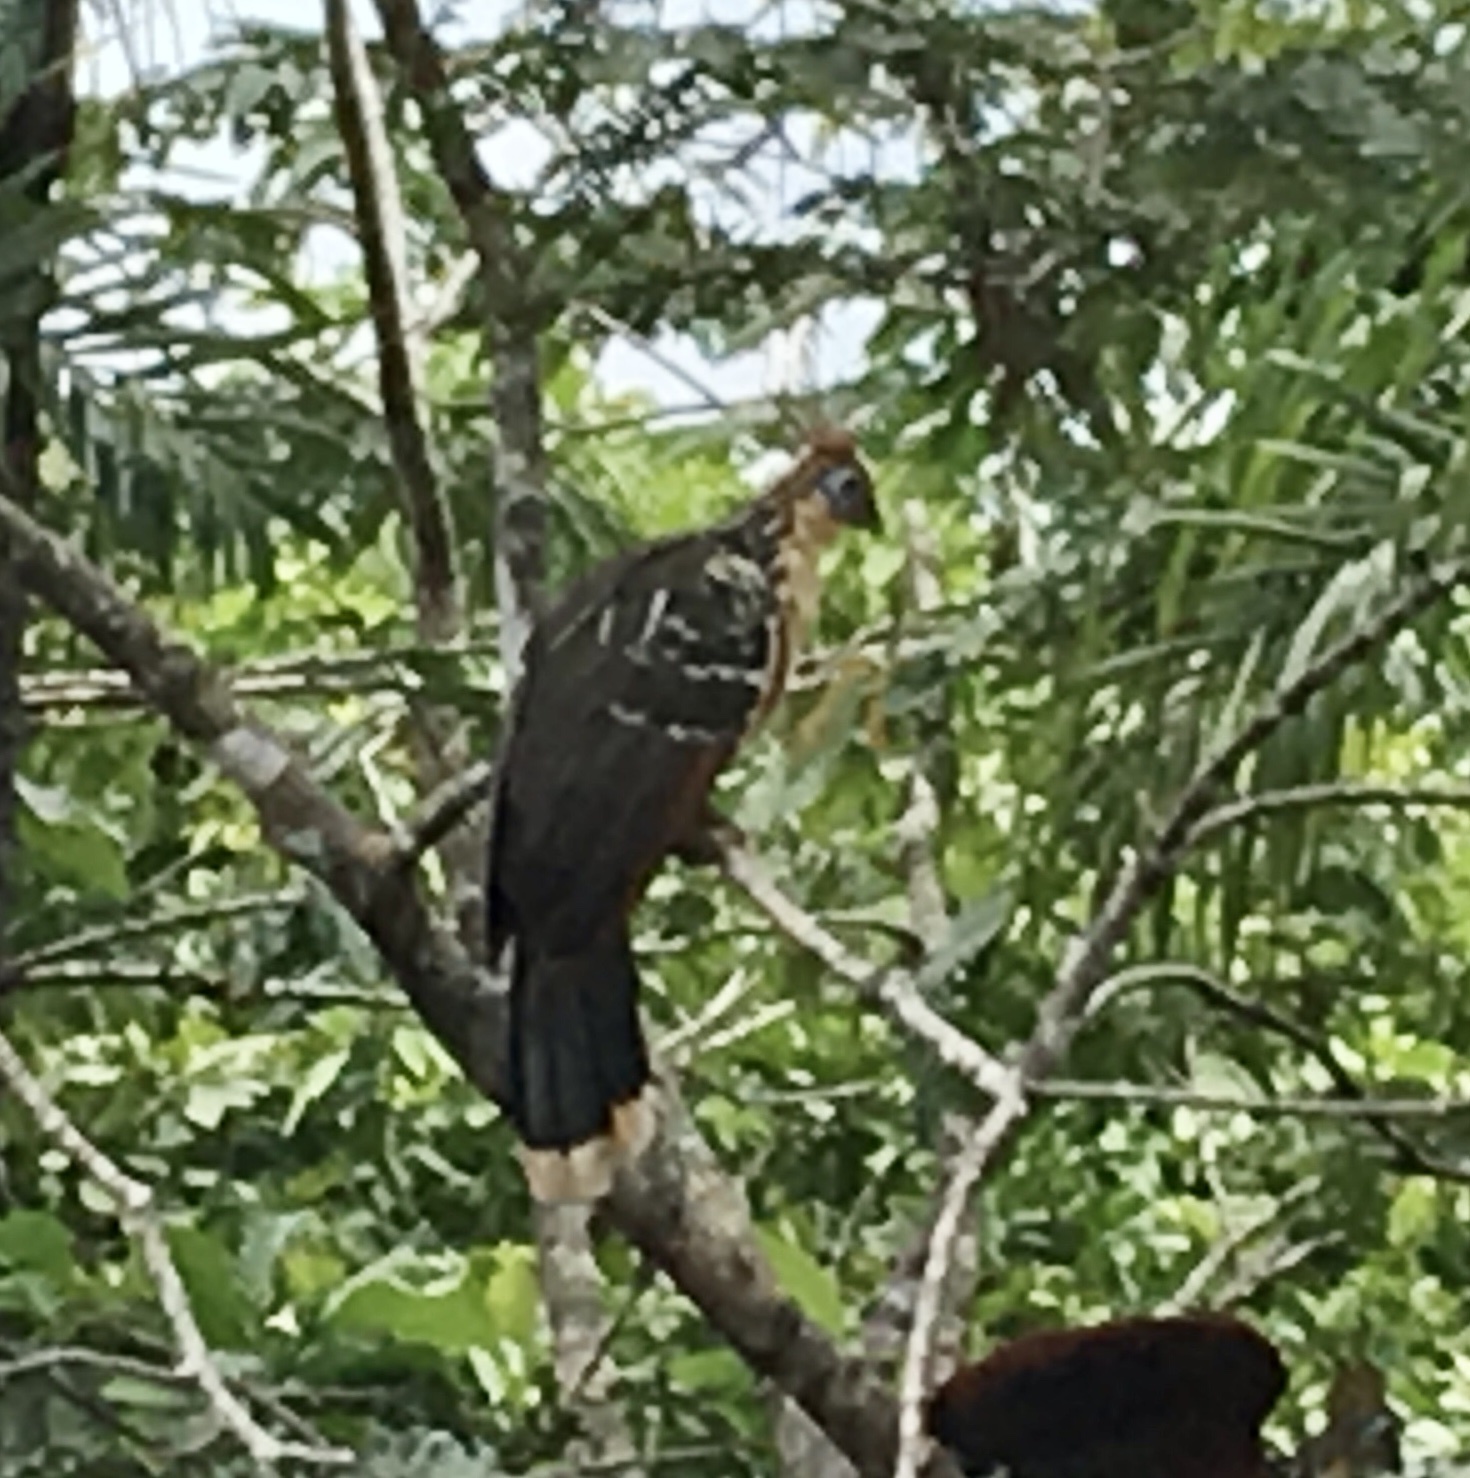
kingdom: Animalia
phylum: Chordata
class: Aves
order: Opisthocomiformes
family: Opisthocomidae
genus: Opisthocomus
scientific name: Opisthocomus hoazin
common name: Hoatzin
